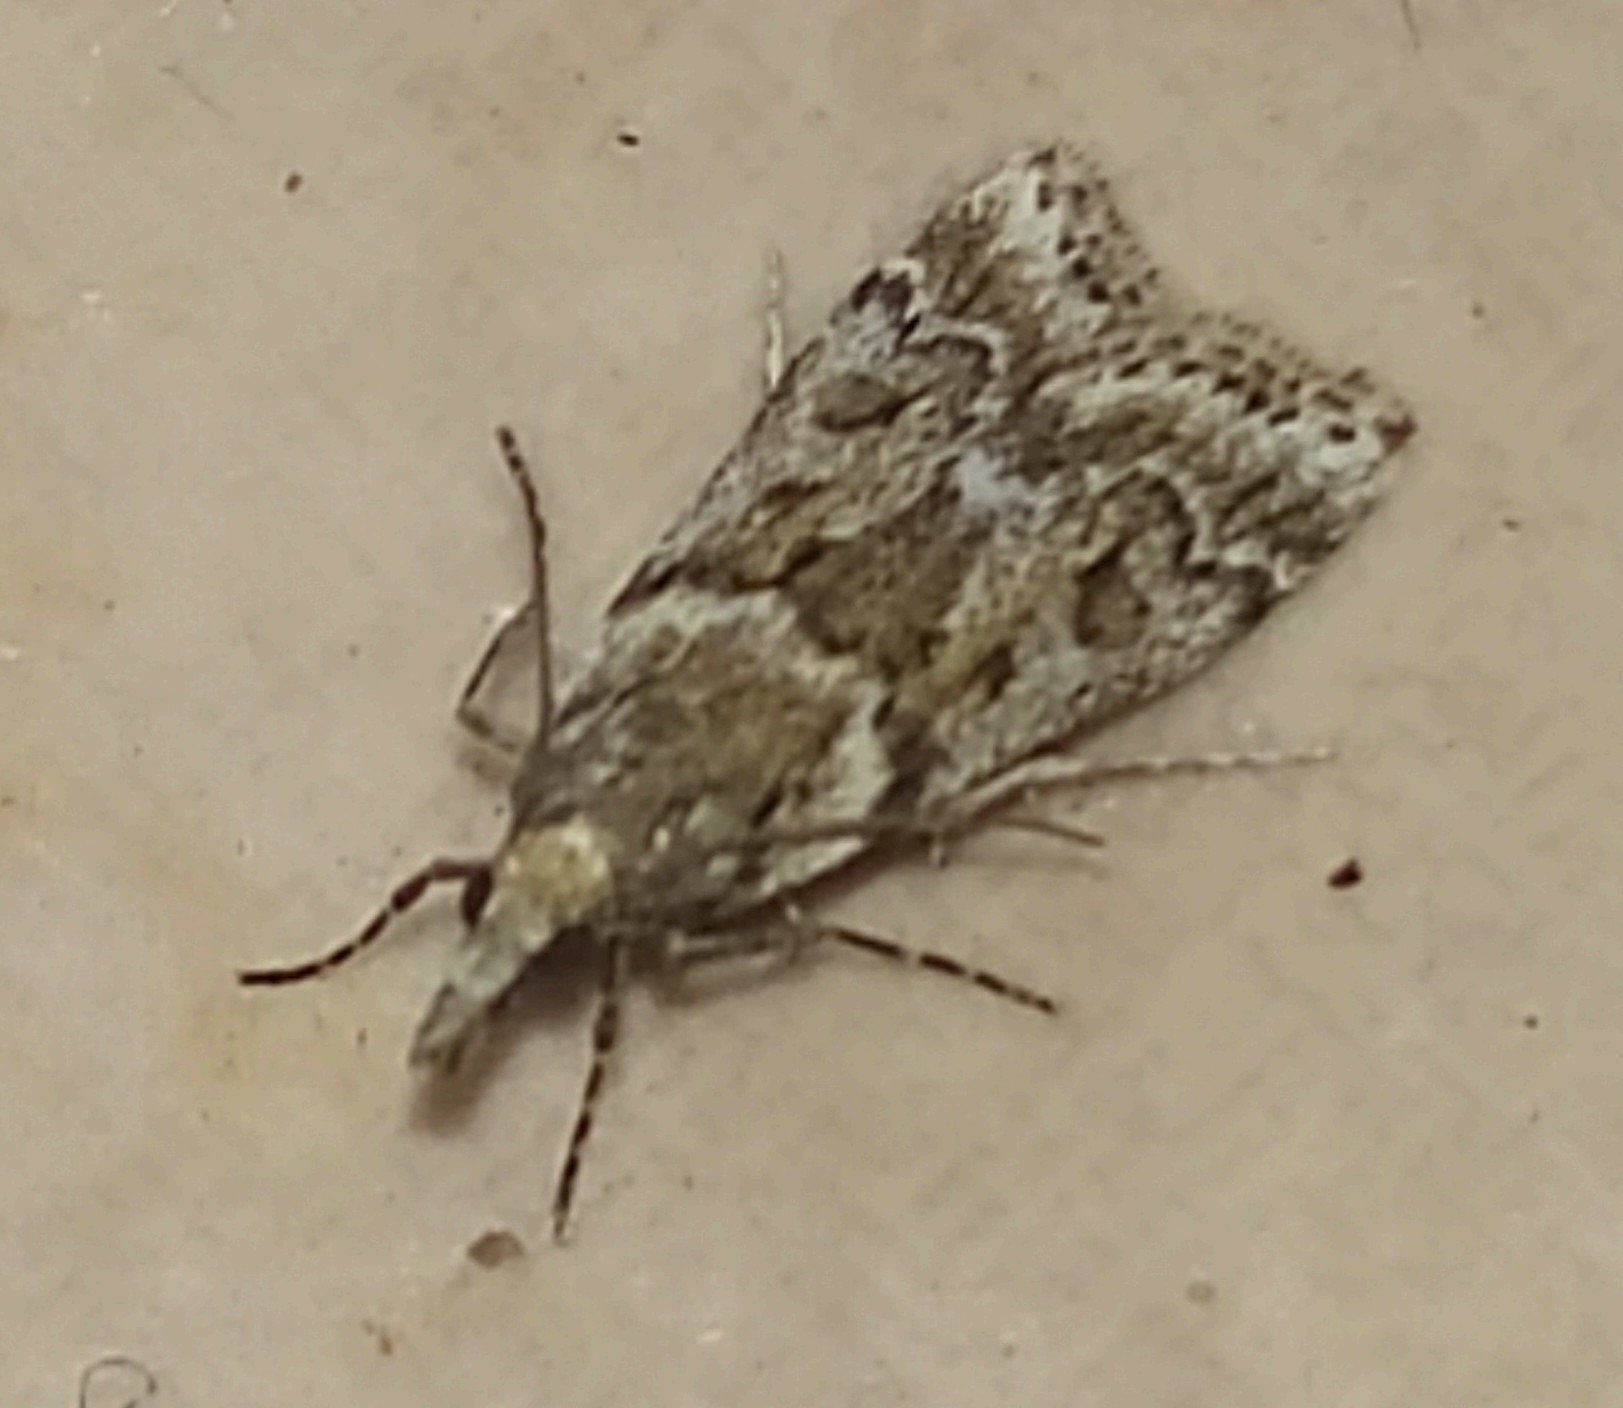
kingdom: Animalia
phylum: Arthropoda
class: Insecta
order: Lepidoptera
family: Crambidae
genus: Eudonia
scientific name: Eudonia angustea
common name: Narrow-winged grey
